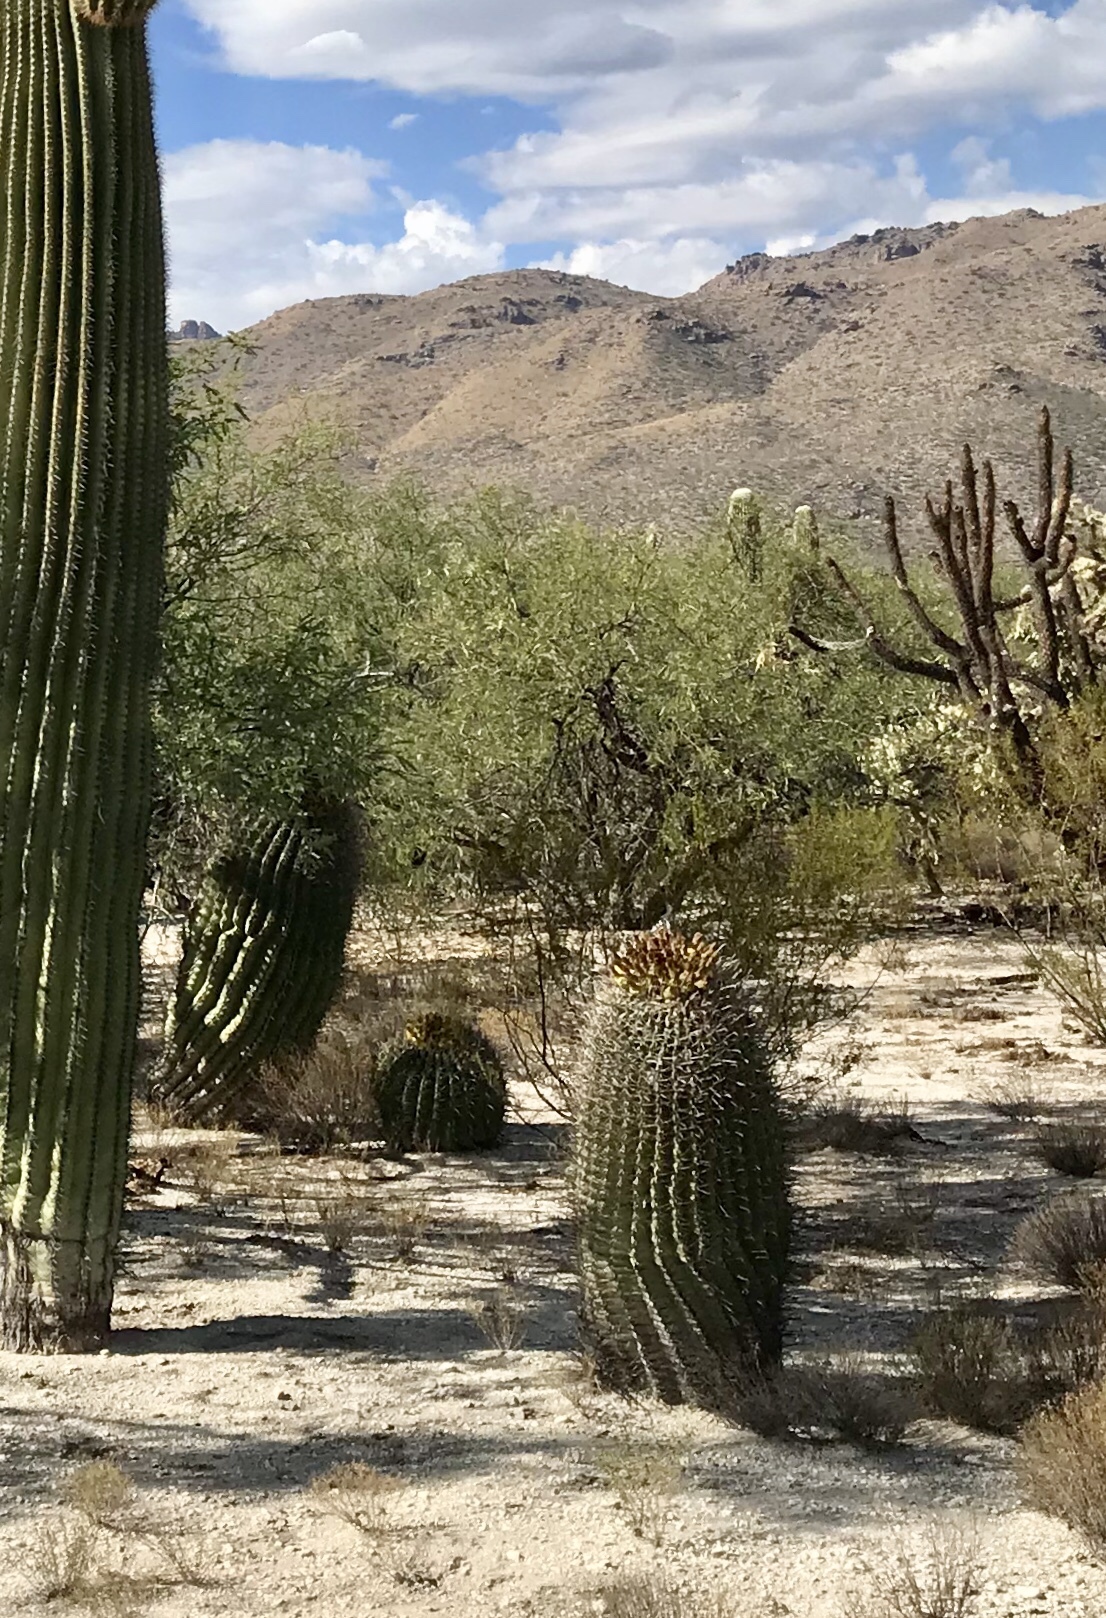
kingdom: Plantae
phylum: Tracheophyta
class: Magnoliopsida
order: Caryophyllales
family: Cactaceae
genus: Ferocactus
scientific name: Ferocactus wislizeni
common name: Candy barrel cactus
